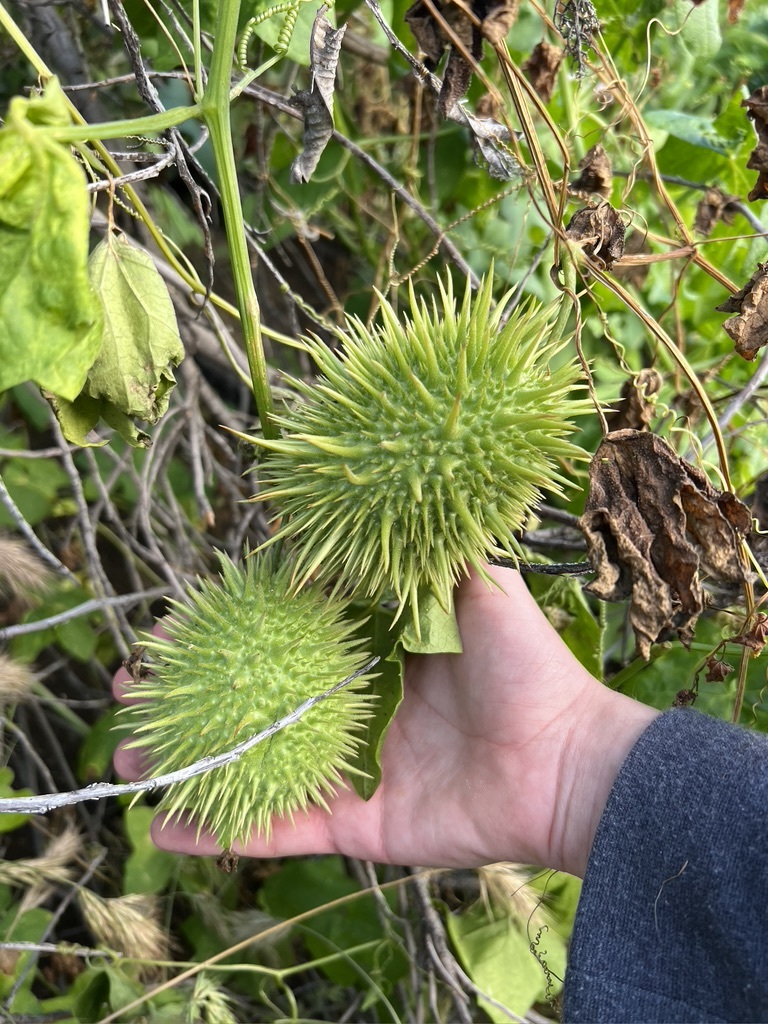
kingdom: Plantae
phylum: Tracheophyta
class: Magnoliopsida
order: Cucurbitales
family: Cucurbitaceae
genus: Marah
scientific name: Marah macrocarpa
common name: Cucamonga manroot
